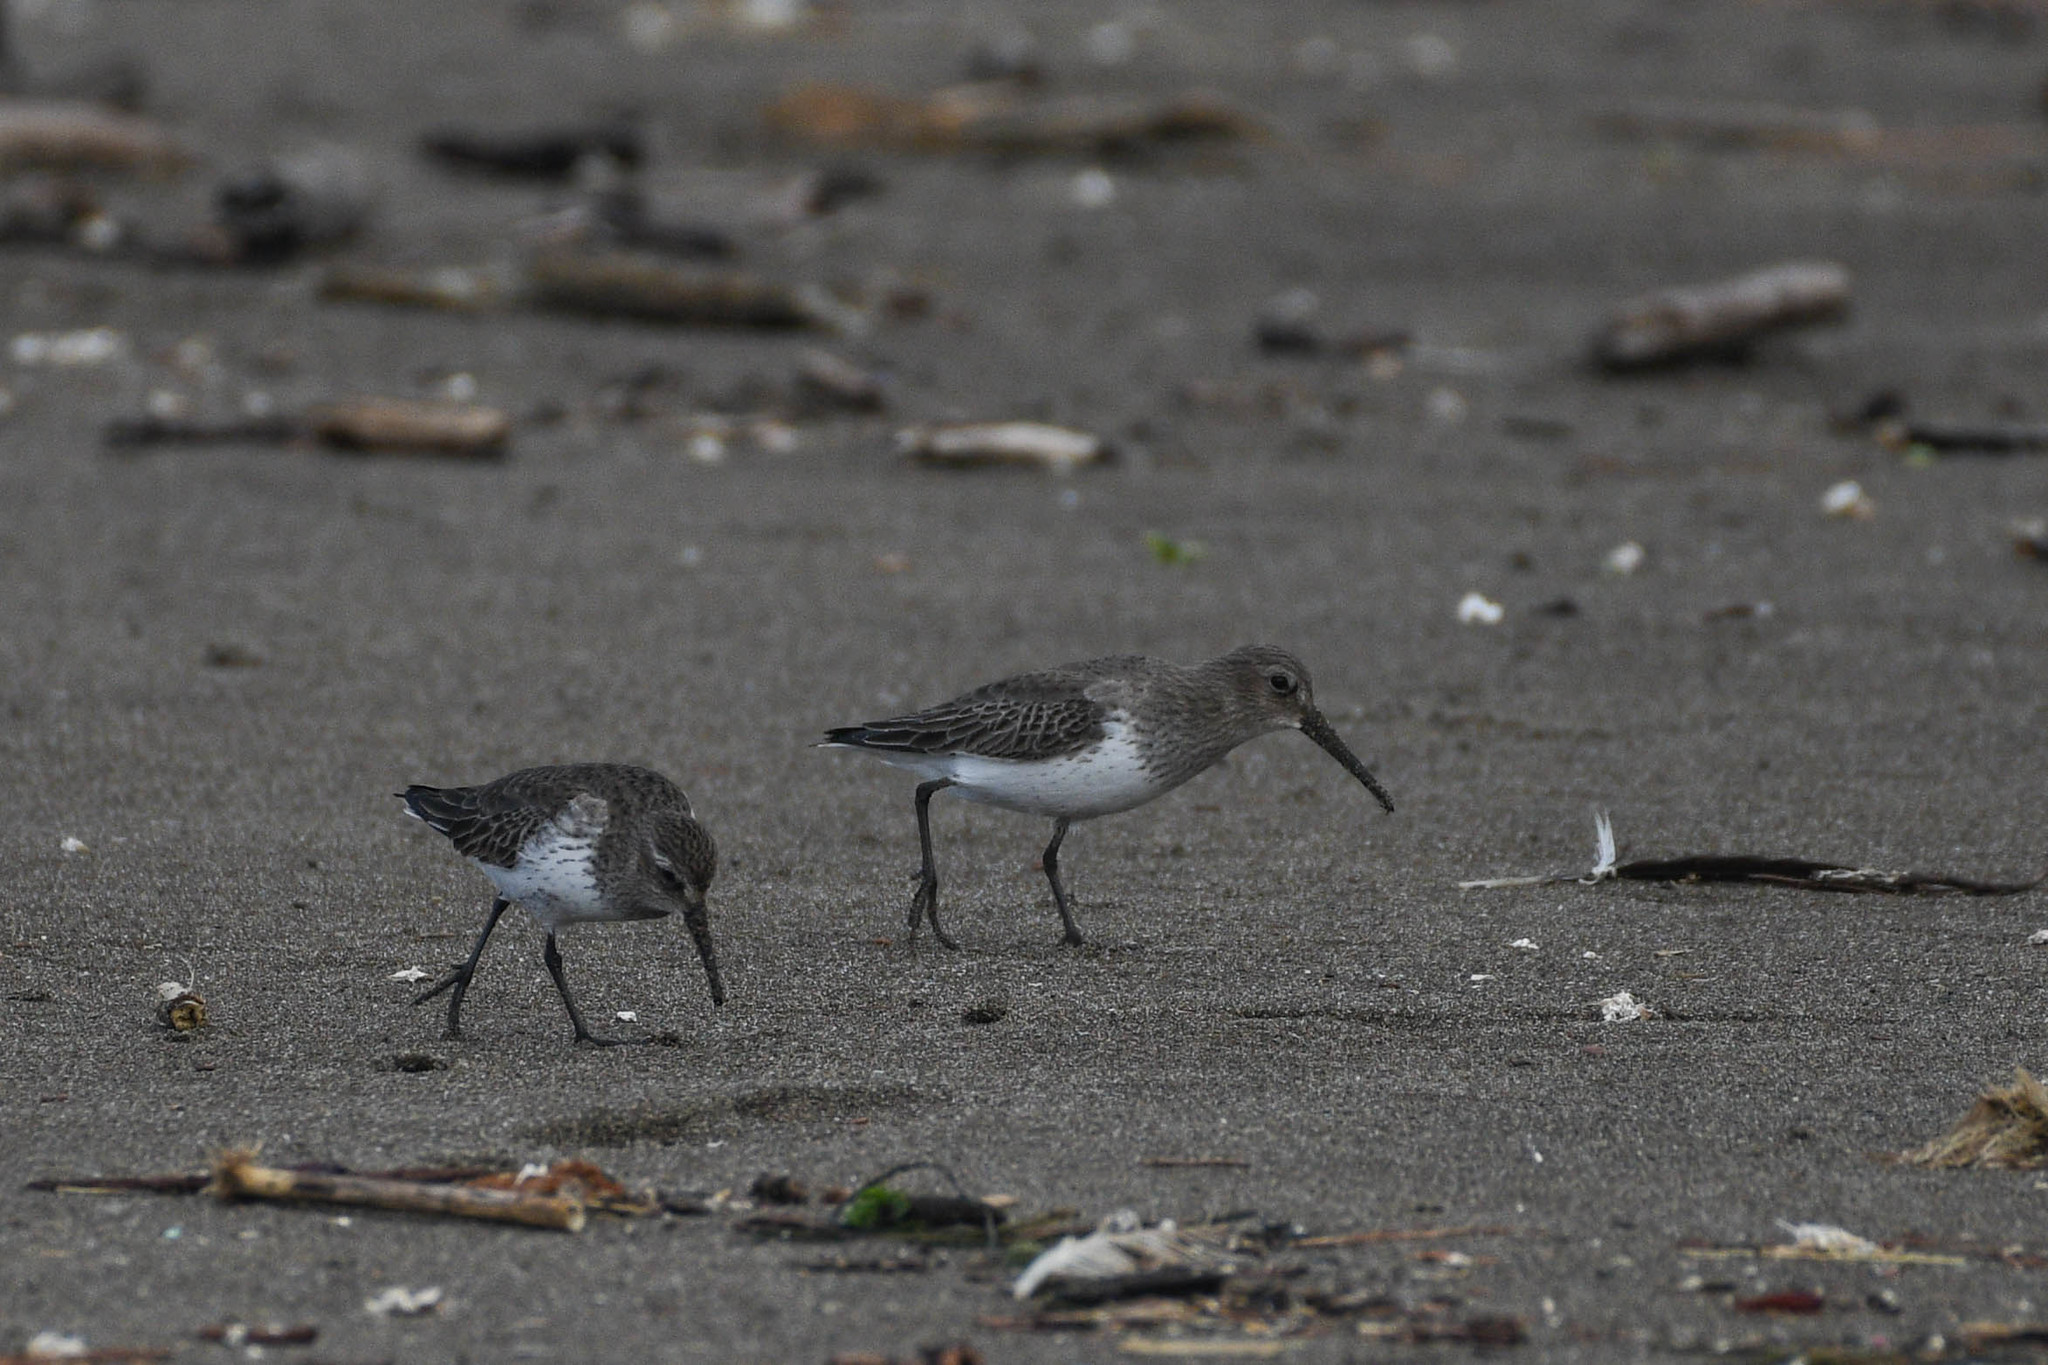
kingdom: Animalia
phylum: Chordata
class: Aves
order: Charadriiformes
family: Scolopacidae
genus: Calidris
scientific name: Calidris alpina
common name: Dunlin
